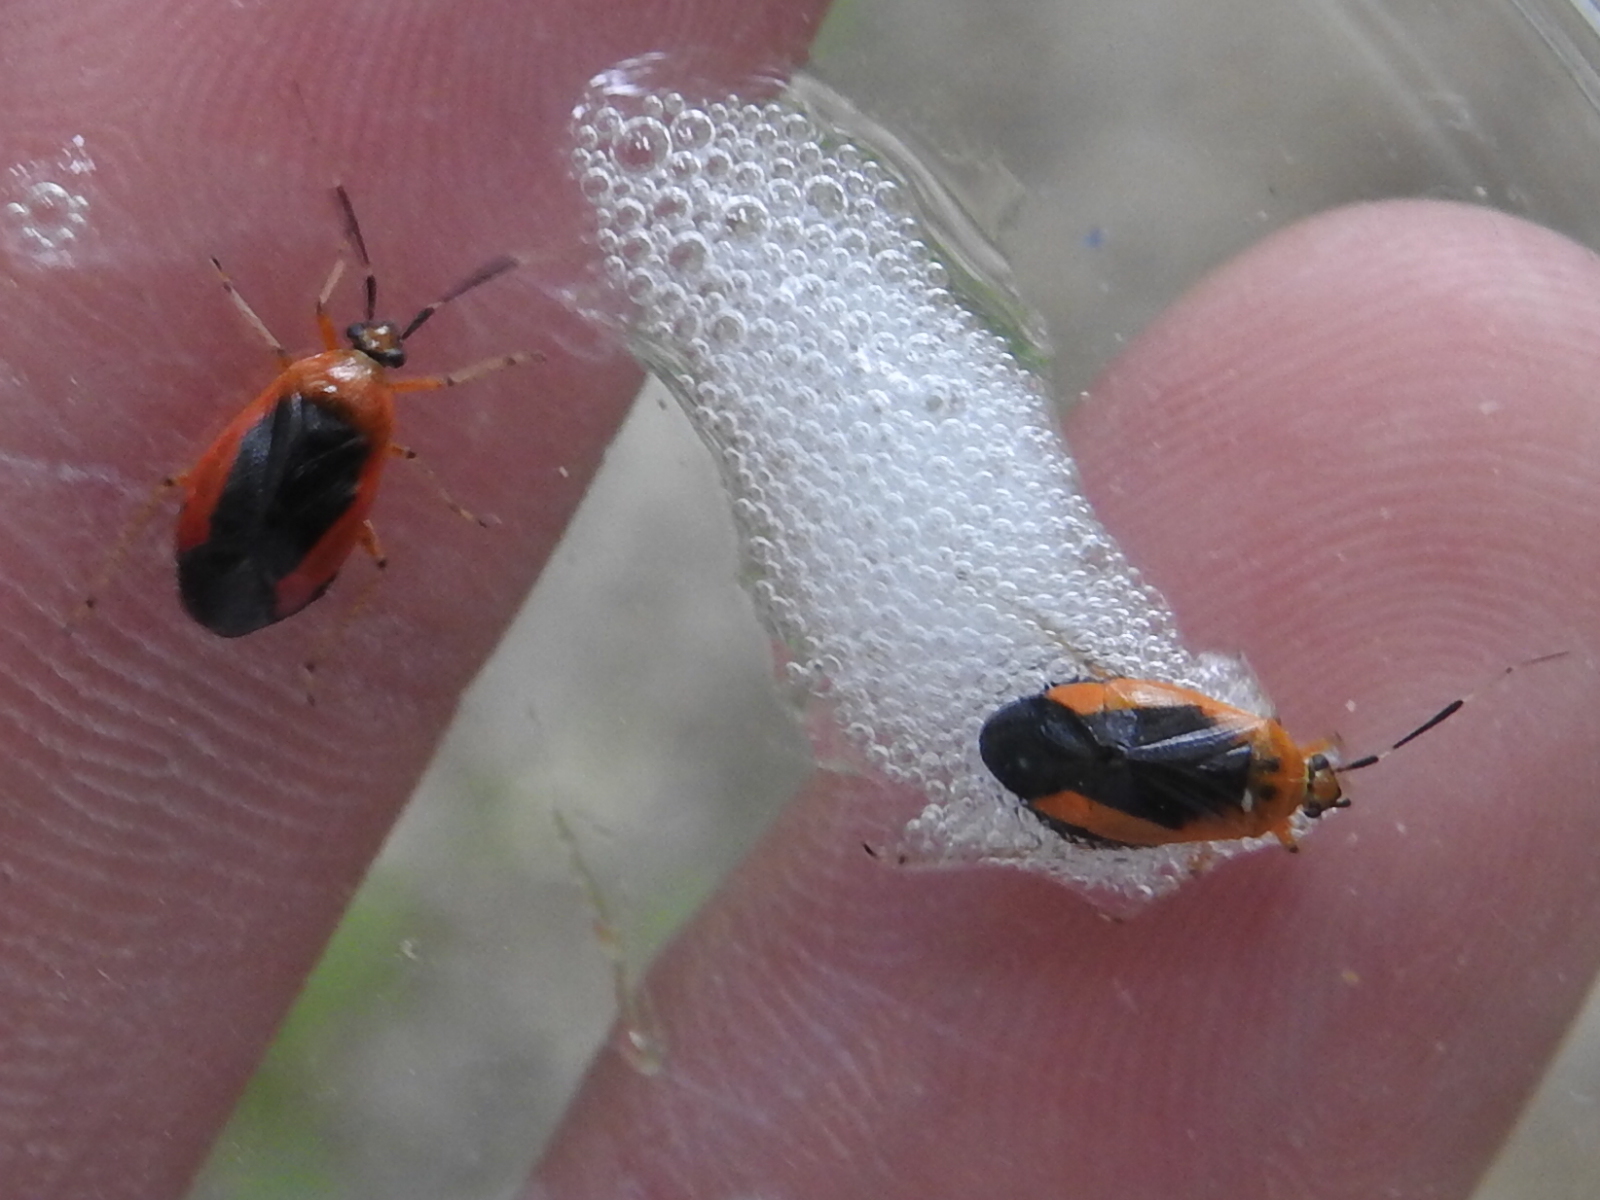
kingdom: Animalia
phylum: Arthropoda
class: Insecta
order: Hemiptera
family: Miridae
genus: Metriorrhynchomiris
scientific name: Metriorrhynchomiris dislocatus
